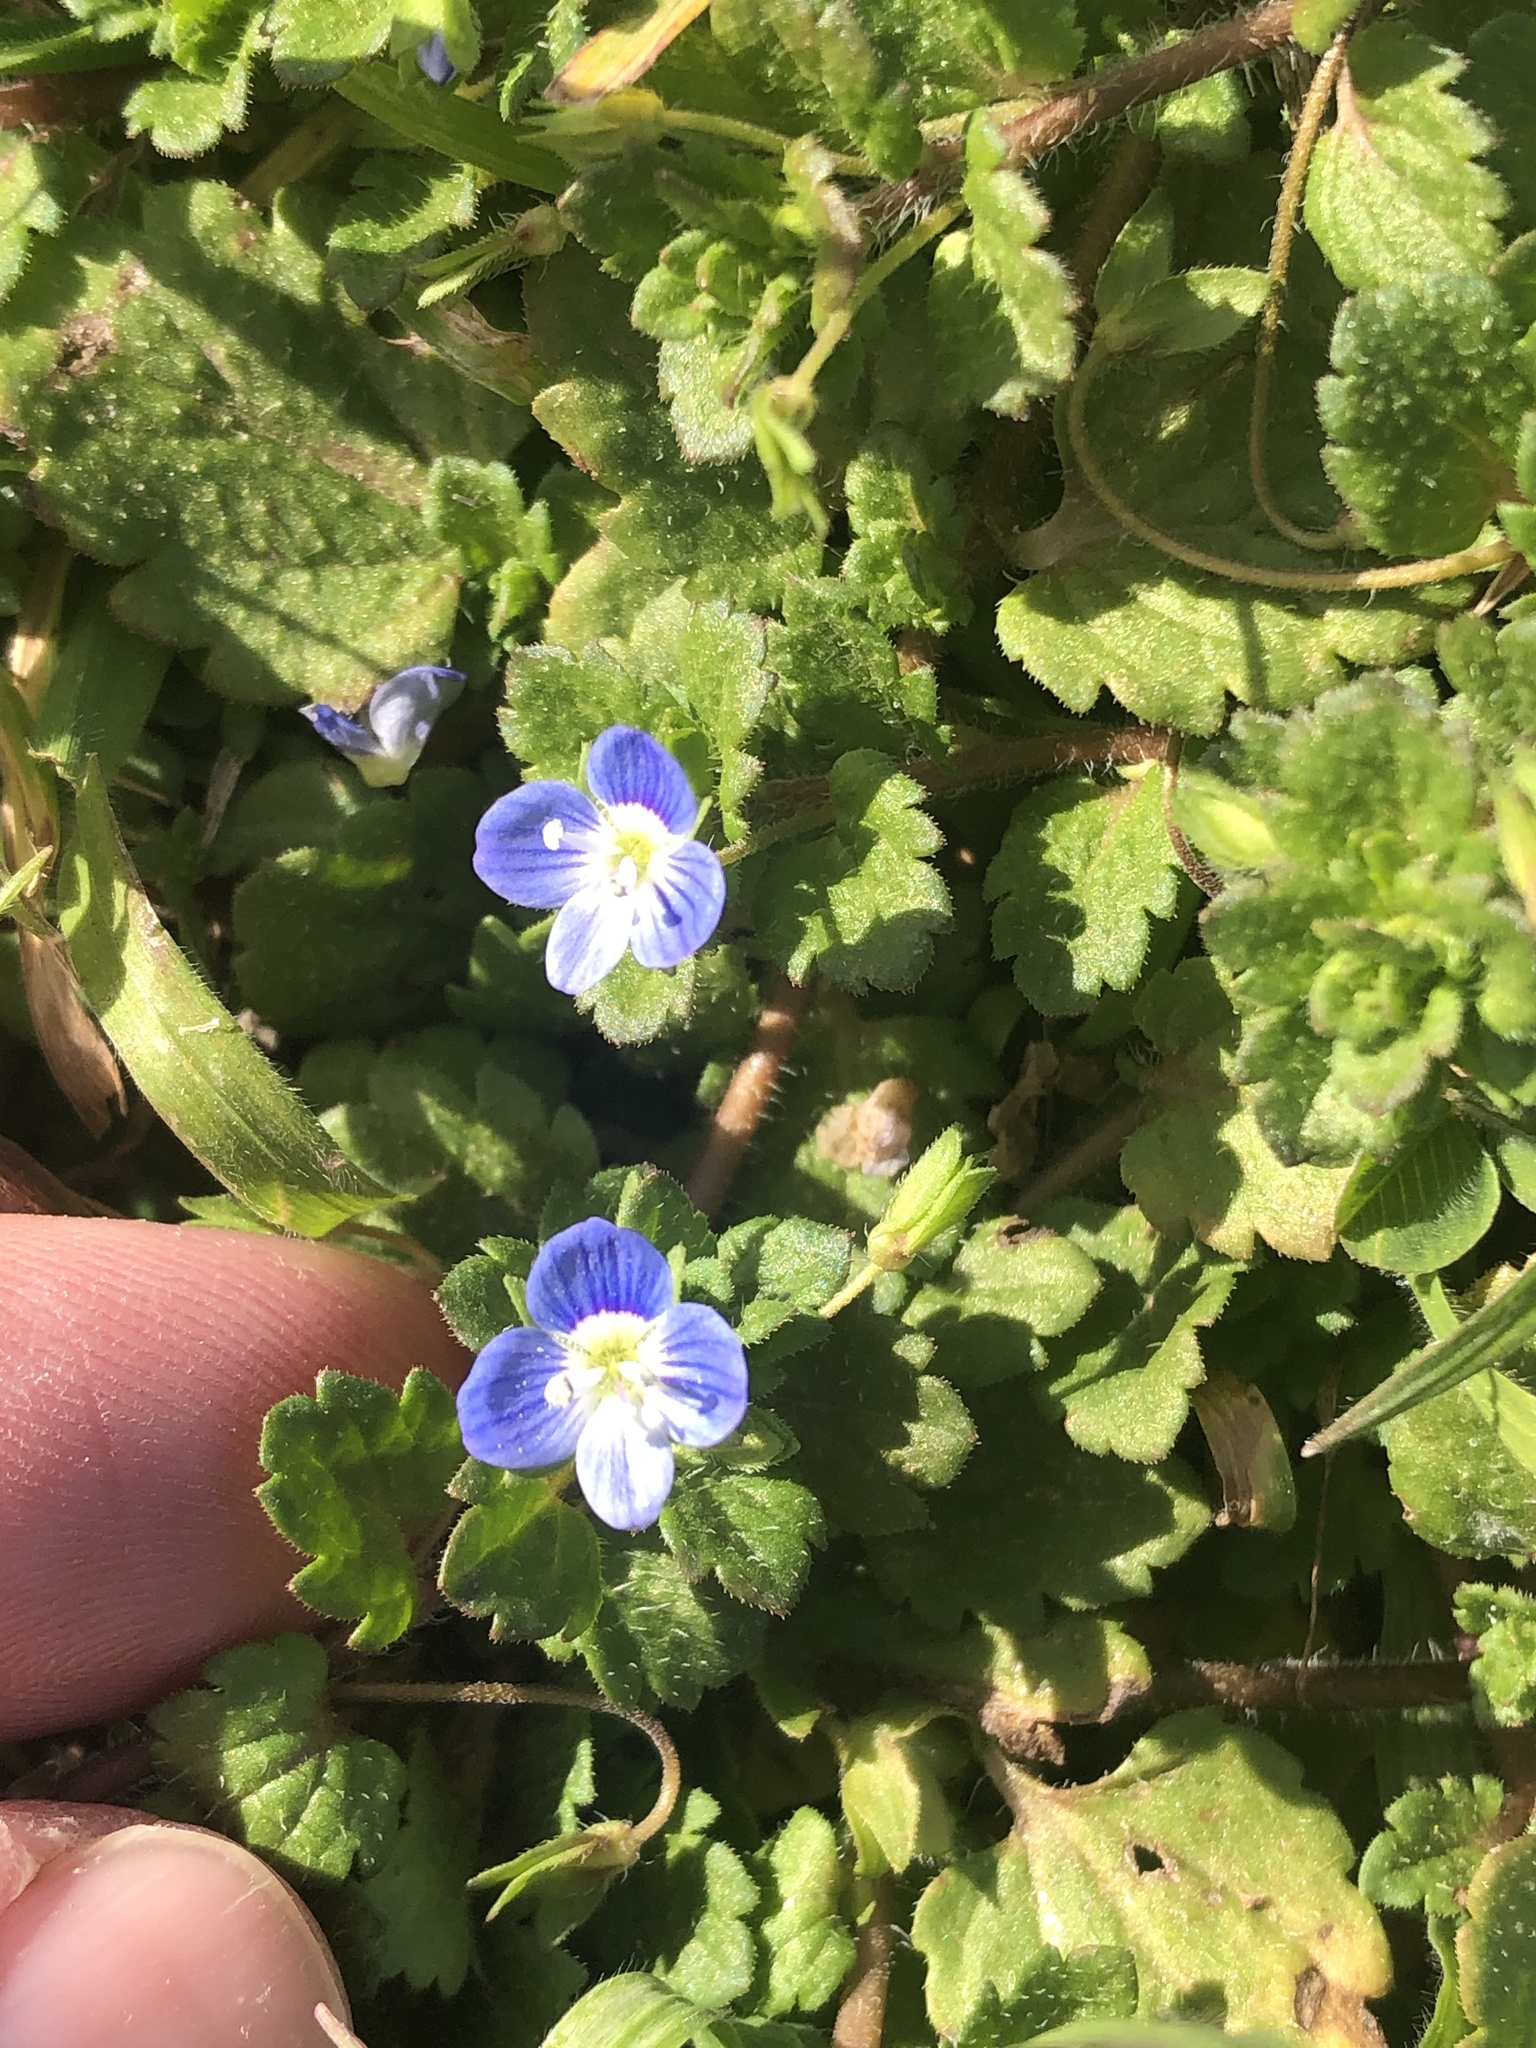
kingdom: Plantae
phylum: Tracheophyta
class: Magnoliopsida
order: Lamiales
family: Plantaginaceae
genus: Veronica
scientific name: Veronica persica
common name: Common field-speedwell
